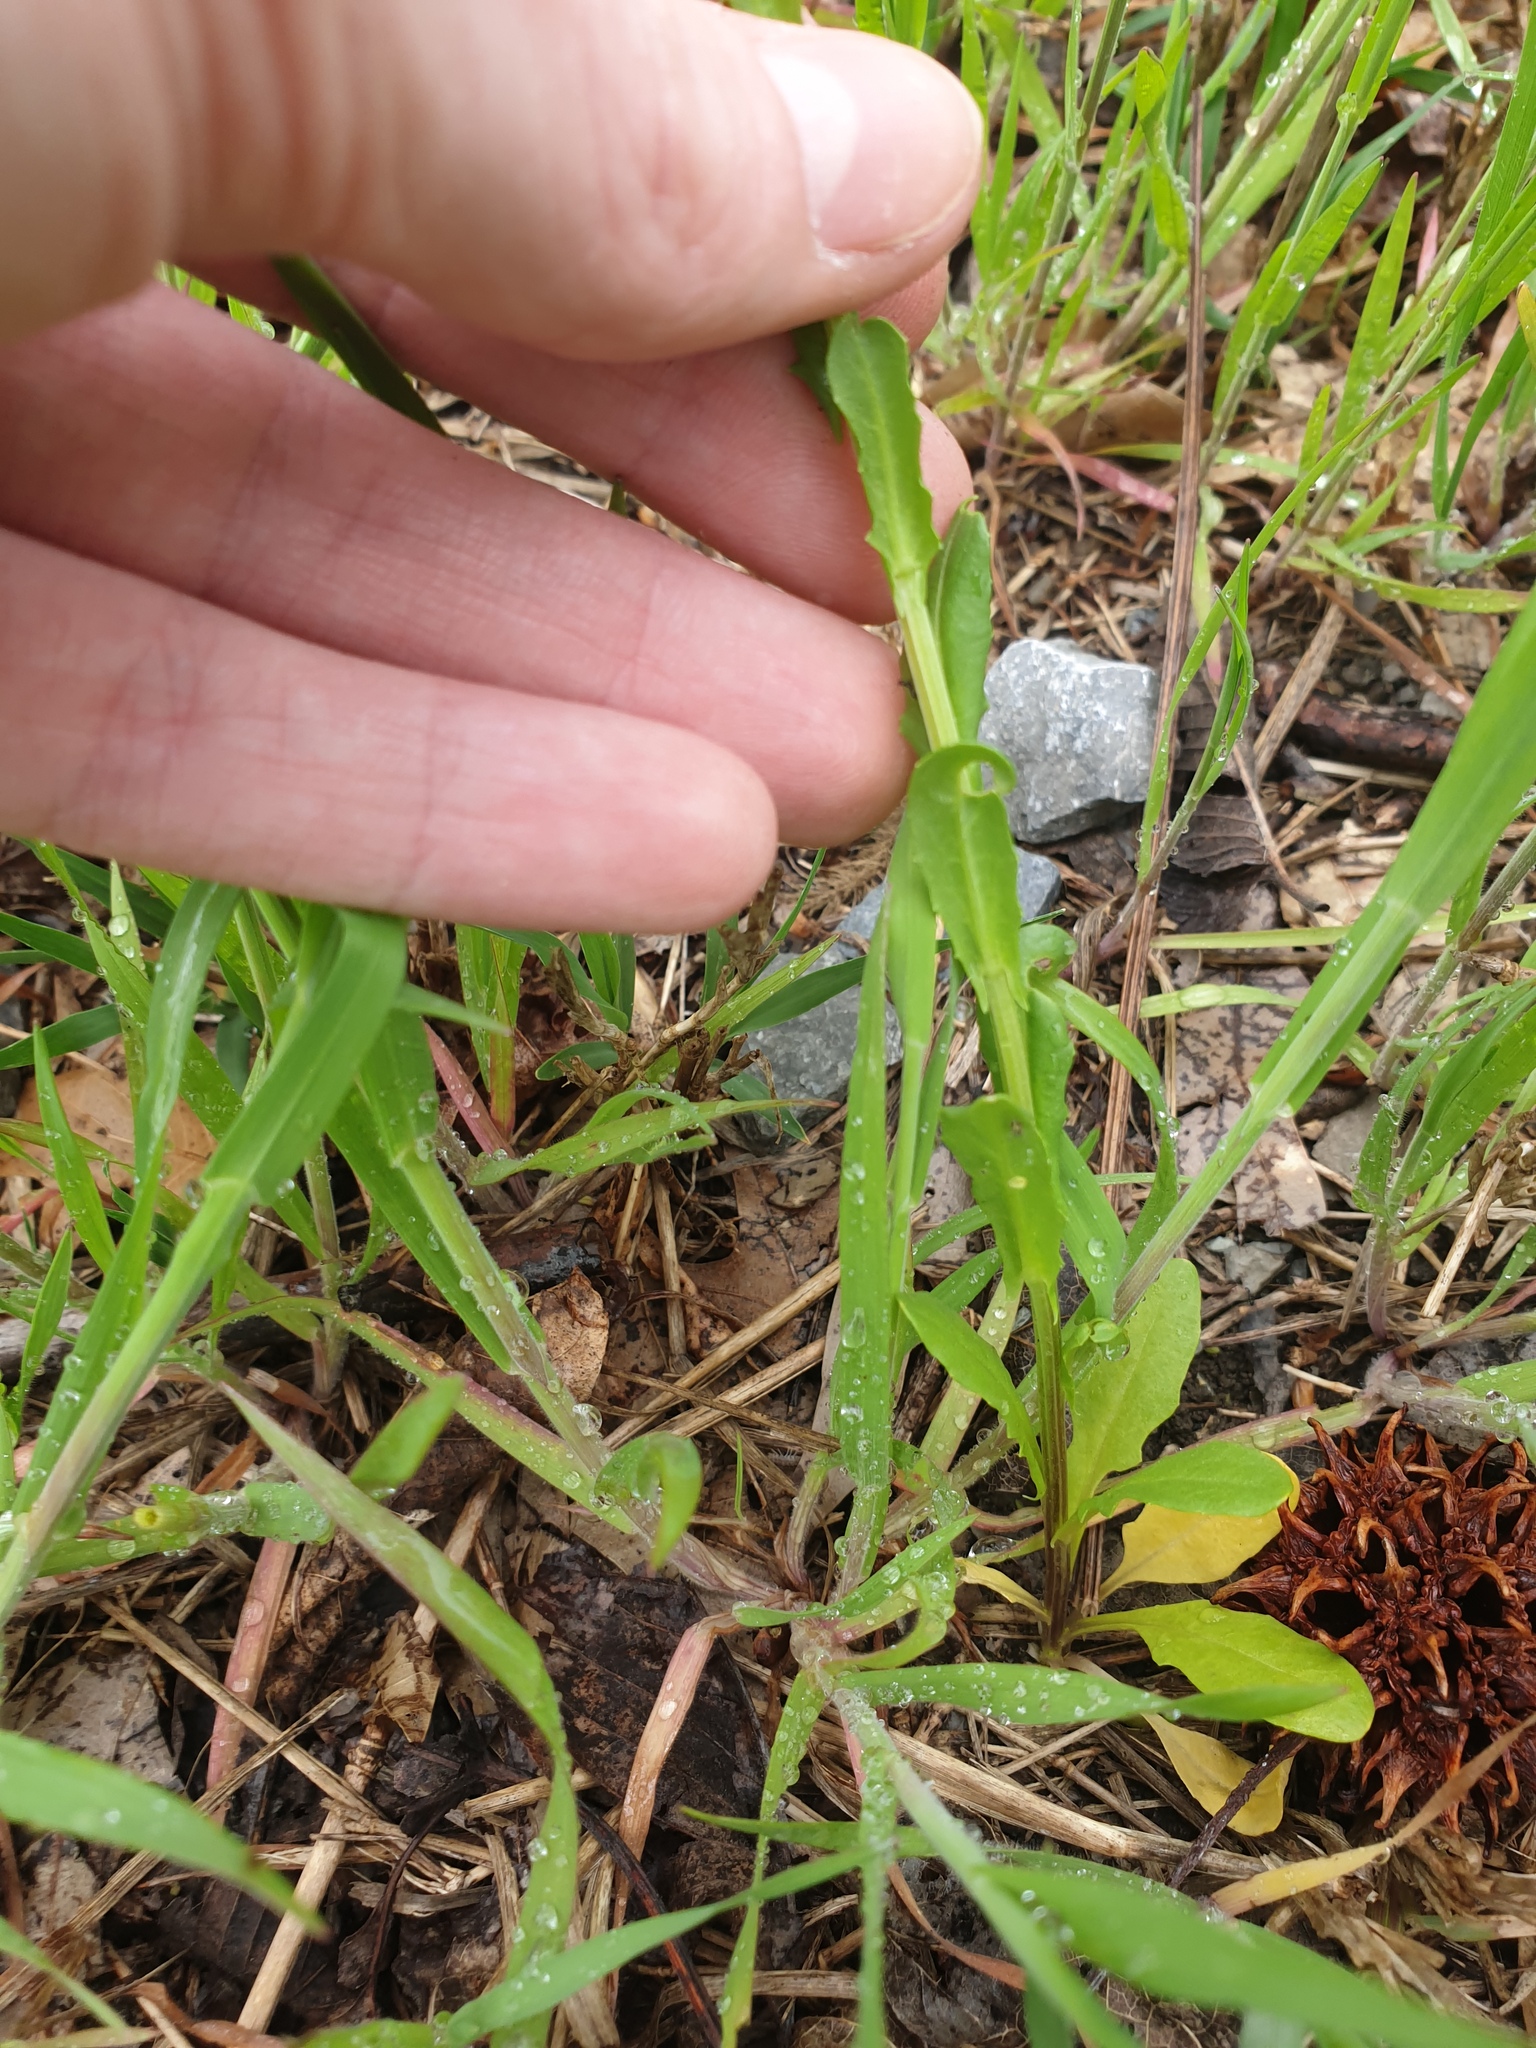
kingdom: Plantae
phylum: Tracheophyta
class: Magnoliopsida
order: Brassicales
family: Brassicaceae
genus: Thlaspi
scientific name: Thlaspi arvense
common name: Field pennycress
